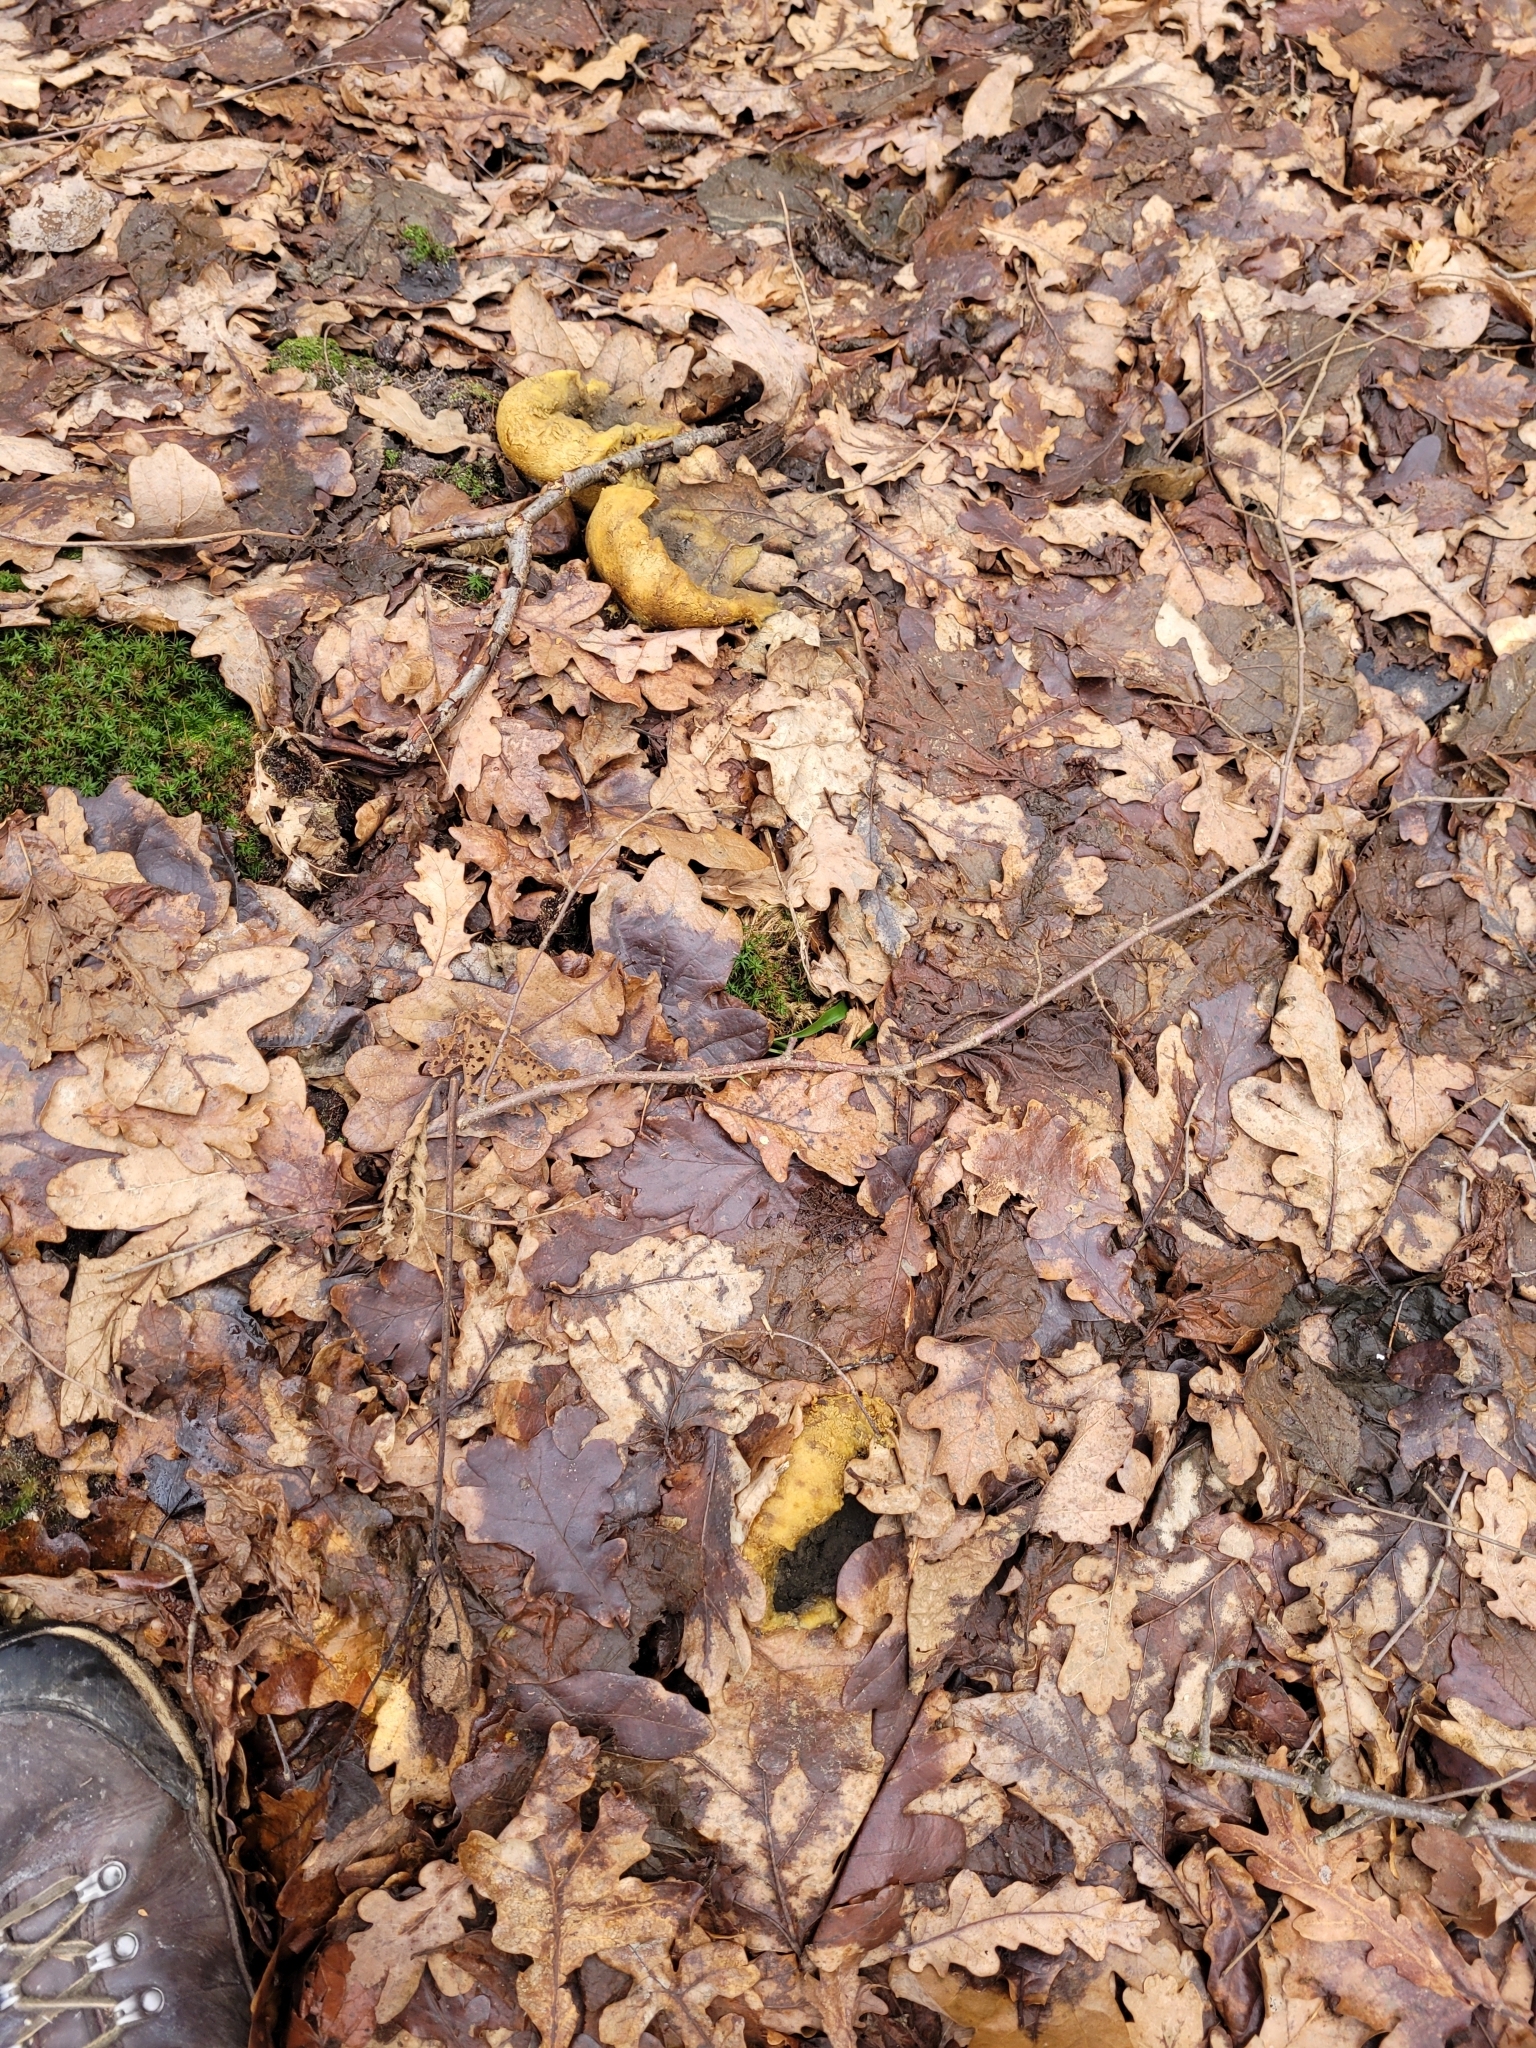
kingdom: Fungi
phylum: Basidiomycota
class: Agaricomycetes
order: Boletales
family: Sclerodermataceae
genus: Scleroderma
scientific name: Scleroderma citrinum
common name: Common earthball
